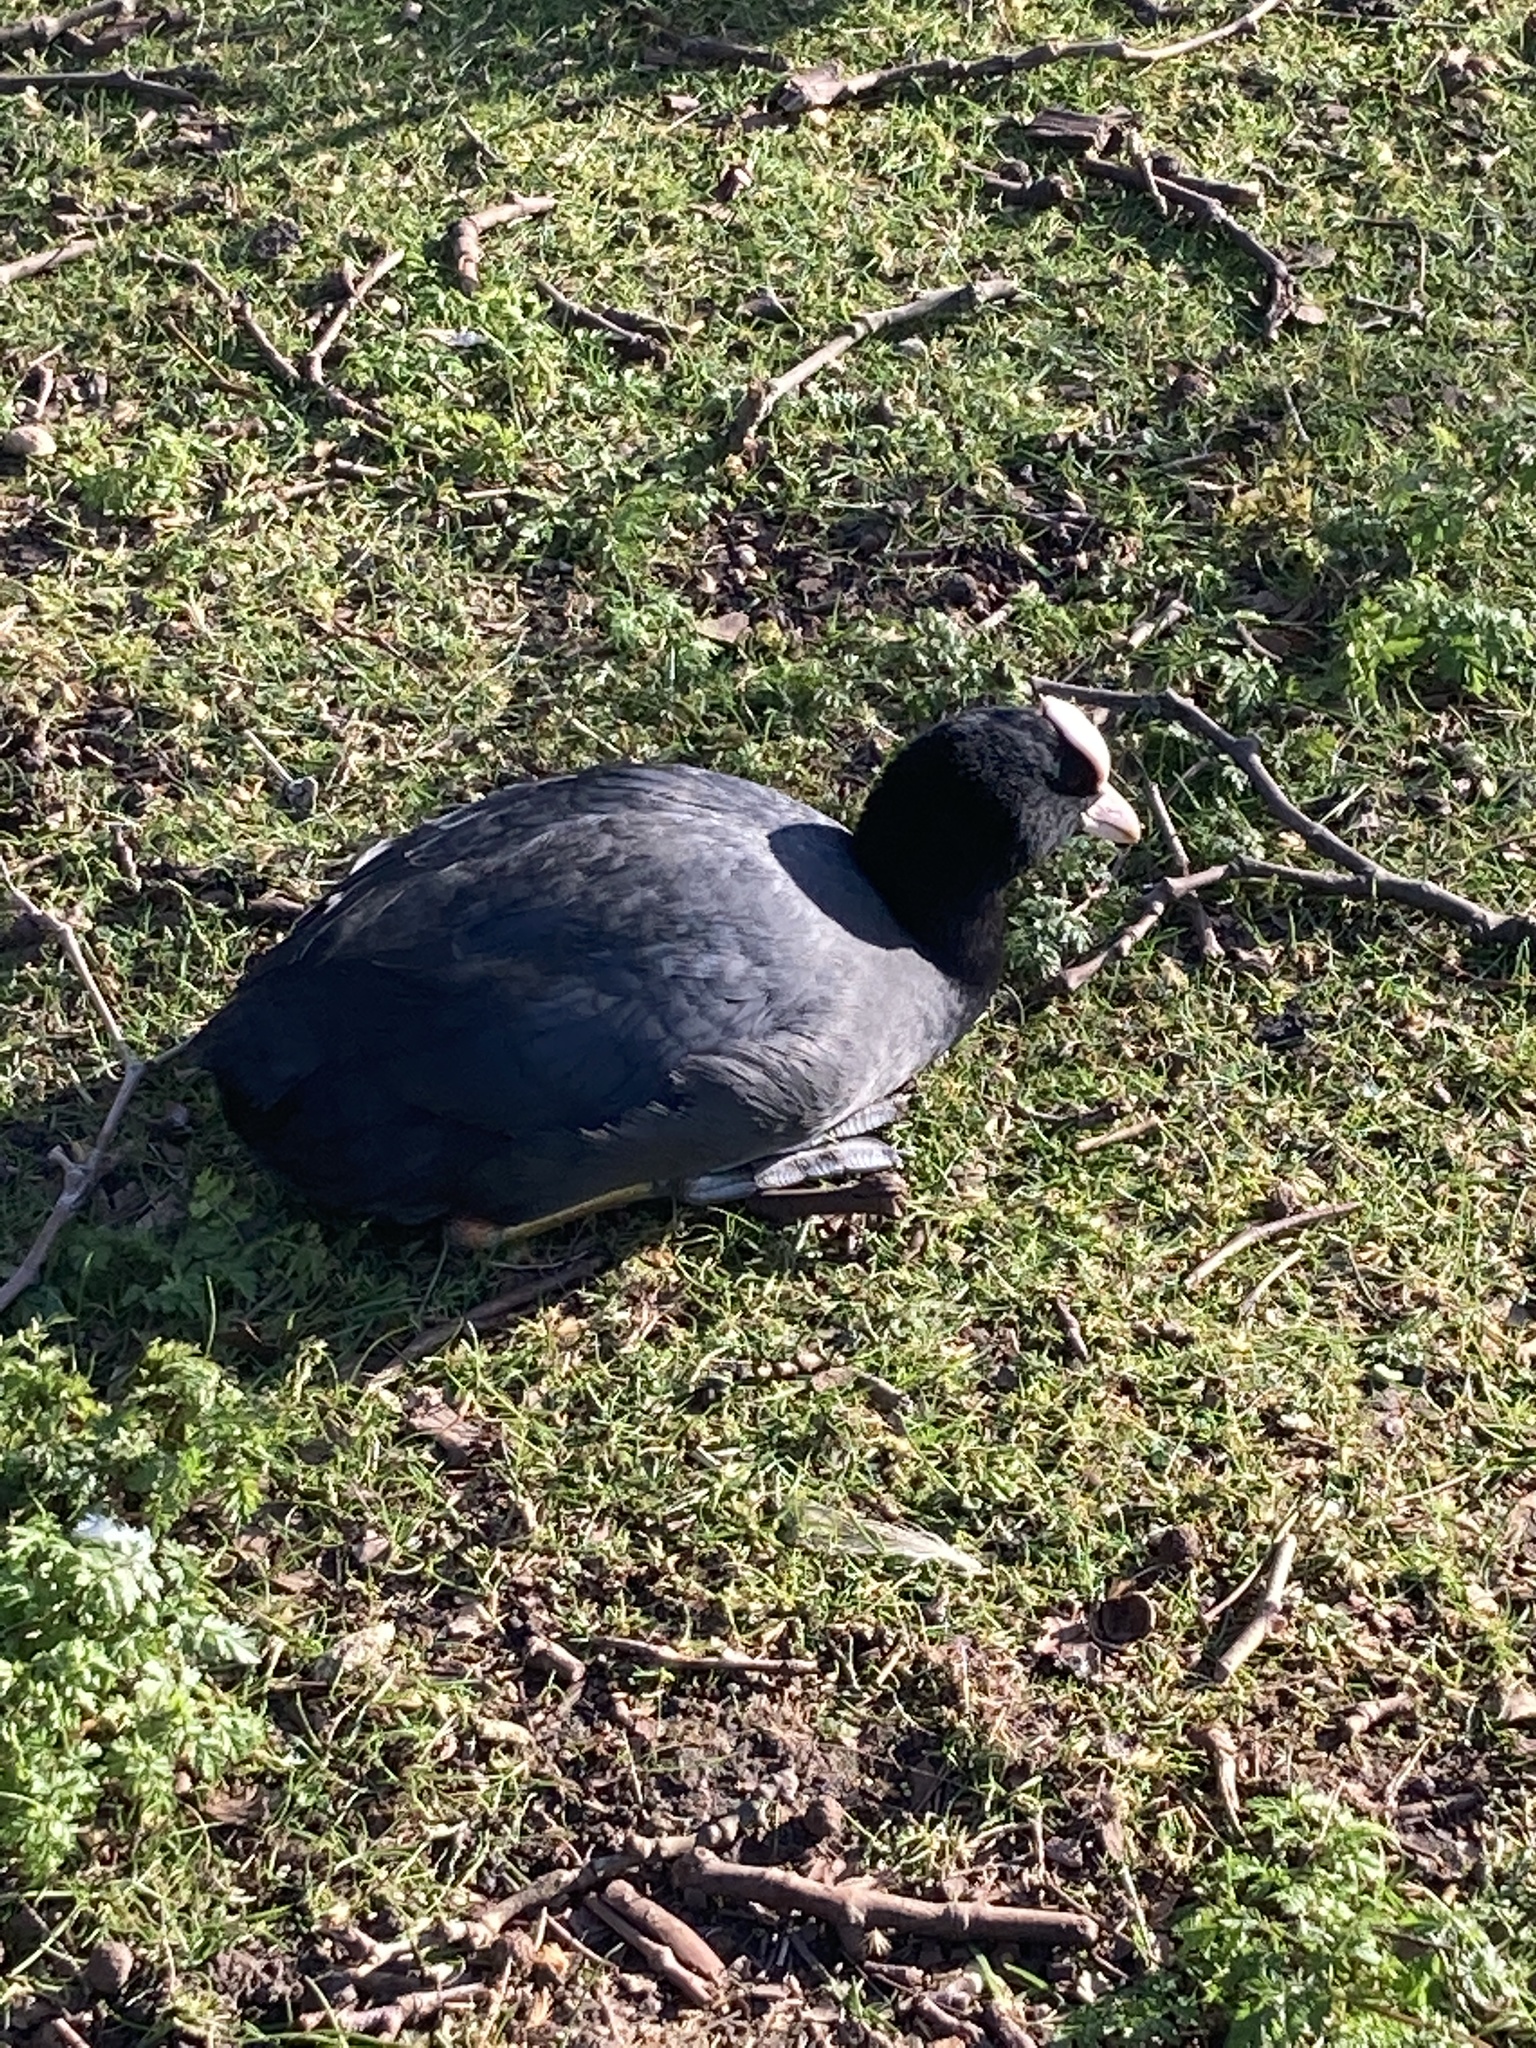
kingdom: Animalia
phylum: Chordata
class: Aves
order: Gruiformes
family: Rallidae
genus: Fulica
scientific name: Fulica atra
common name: Eurasian coot
